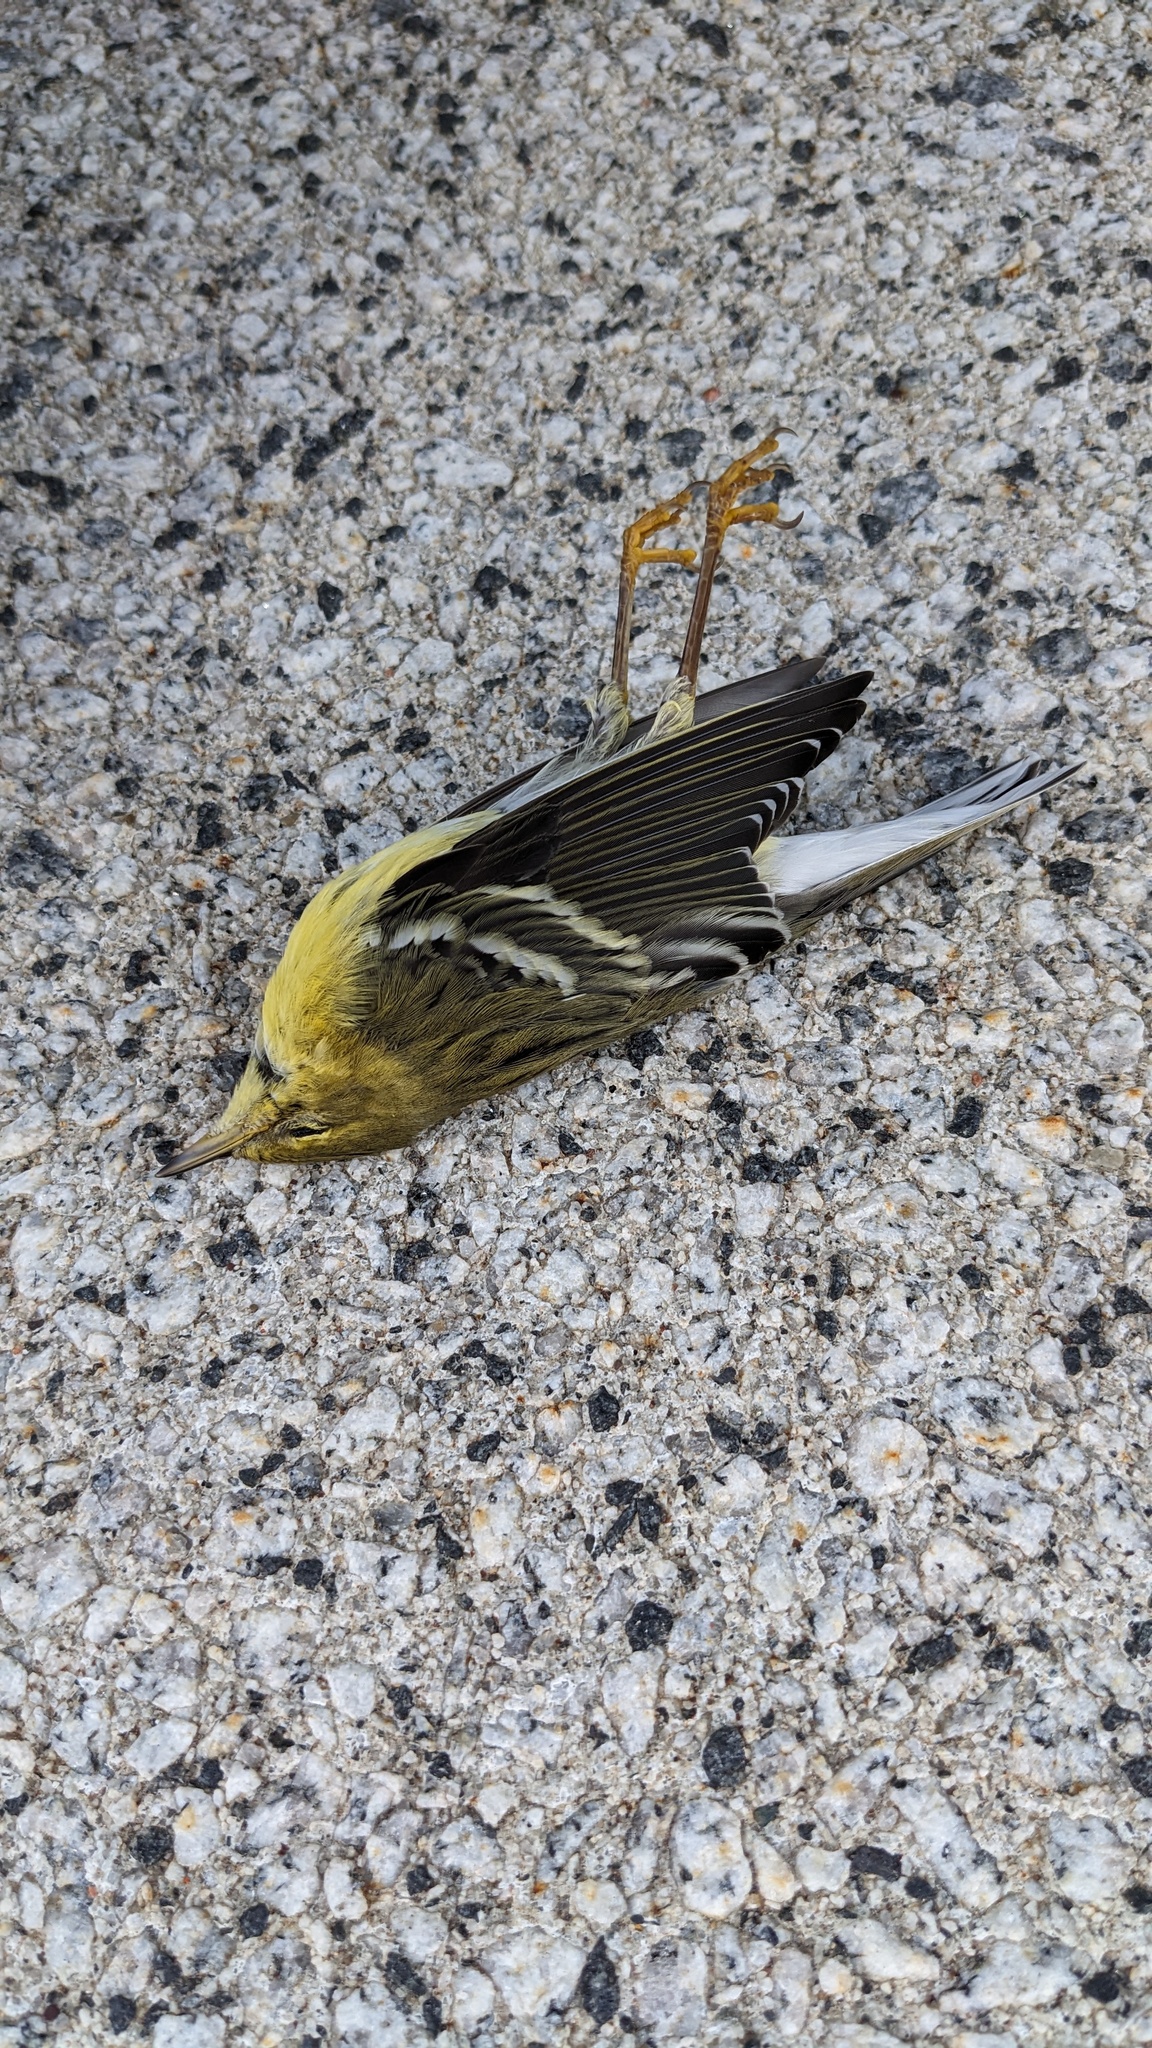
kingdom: Animalia
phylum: Chordata
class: Aves
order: Passeriformes
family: Parulidae
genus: Setophaga
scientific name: Setophaga striata
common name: Blackpoll warbler
